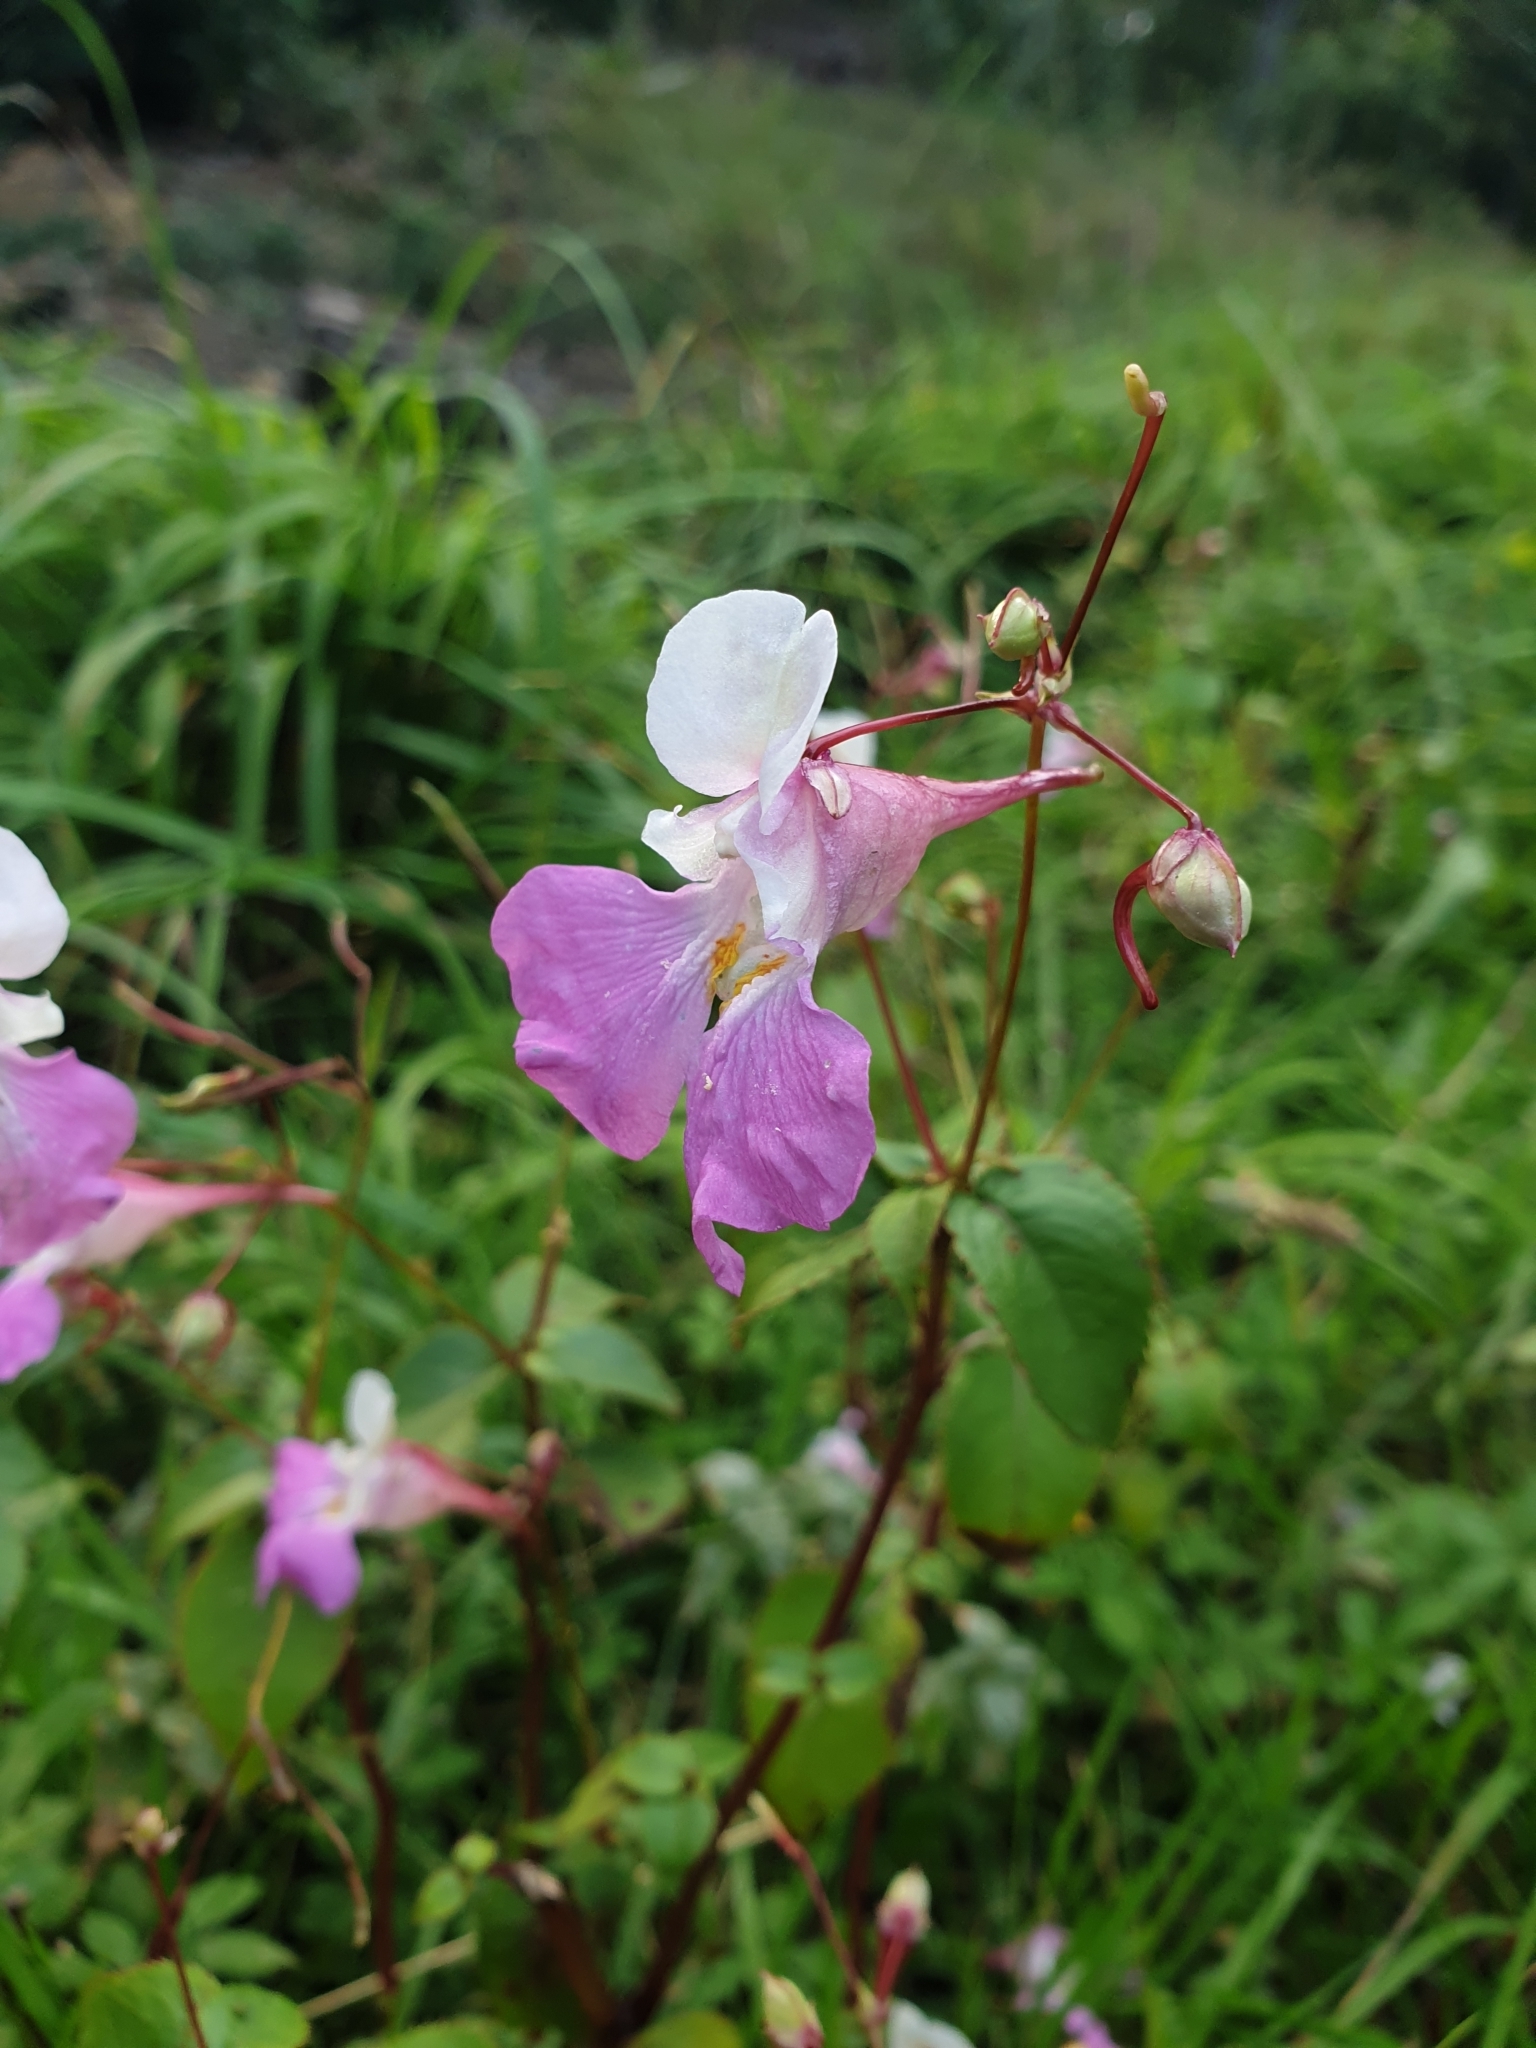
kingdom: Plantae
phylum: Tracheophyta
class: Magnoliopsida
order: Ericales
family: Balsaminaceae
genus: Impatiens
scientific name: Impatiens balfourii
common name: Balfour's touch-me-not
